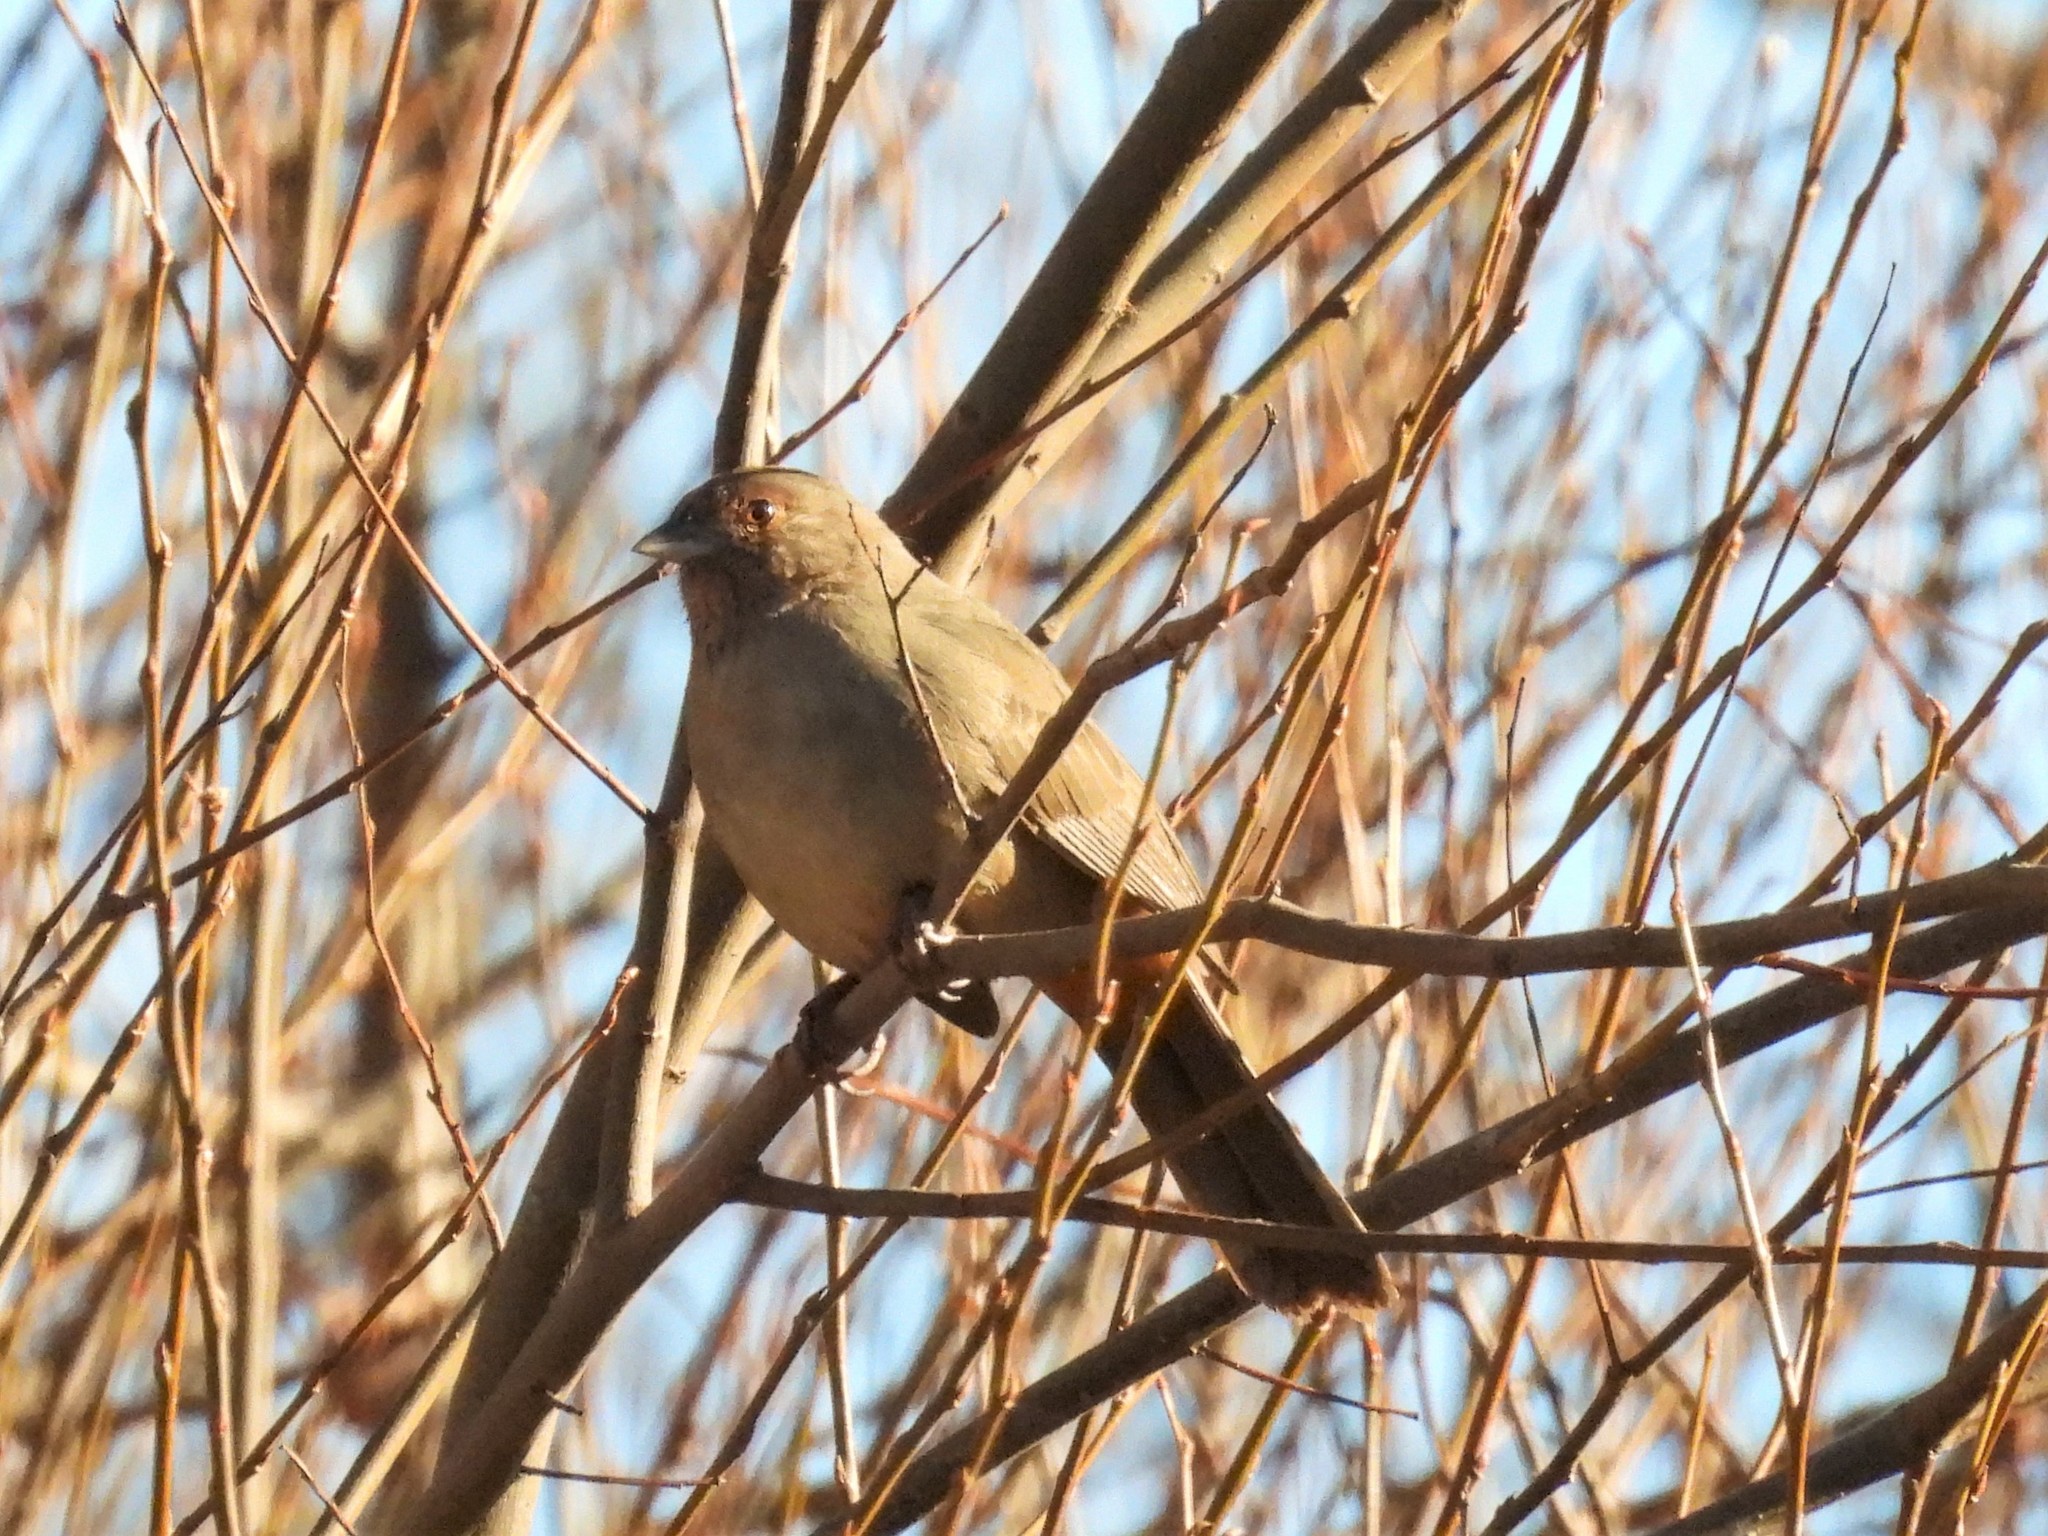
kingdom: Animalia
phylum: Chordata
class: Aves
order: Passeriformes
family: Passerellidae
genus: Melozone
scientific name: Melozone crissalis
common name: California towhee
